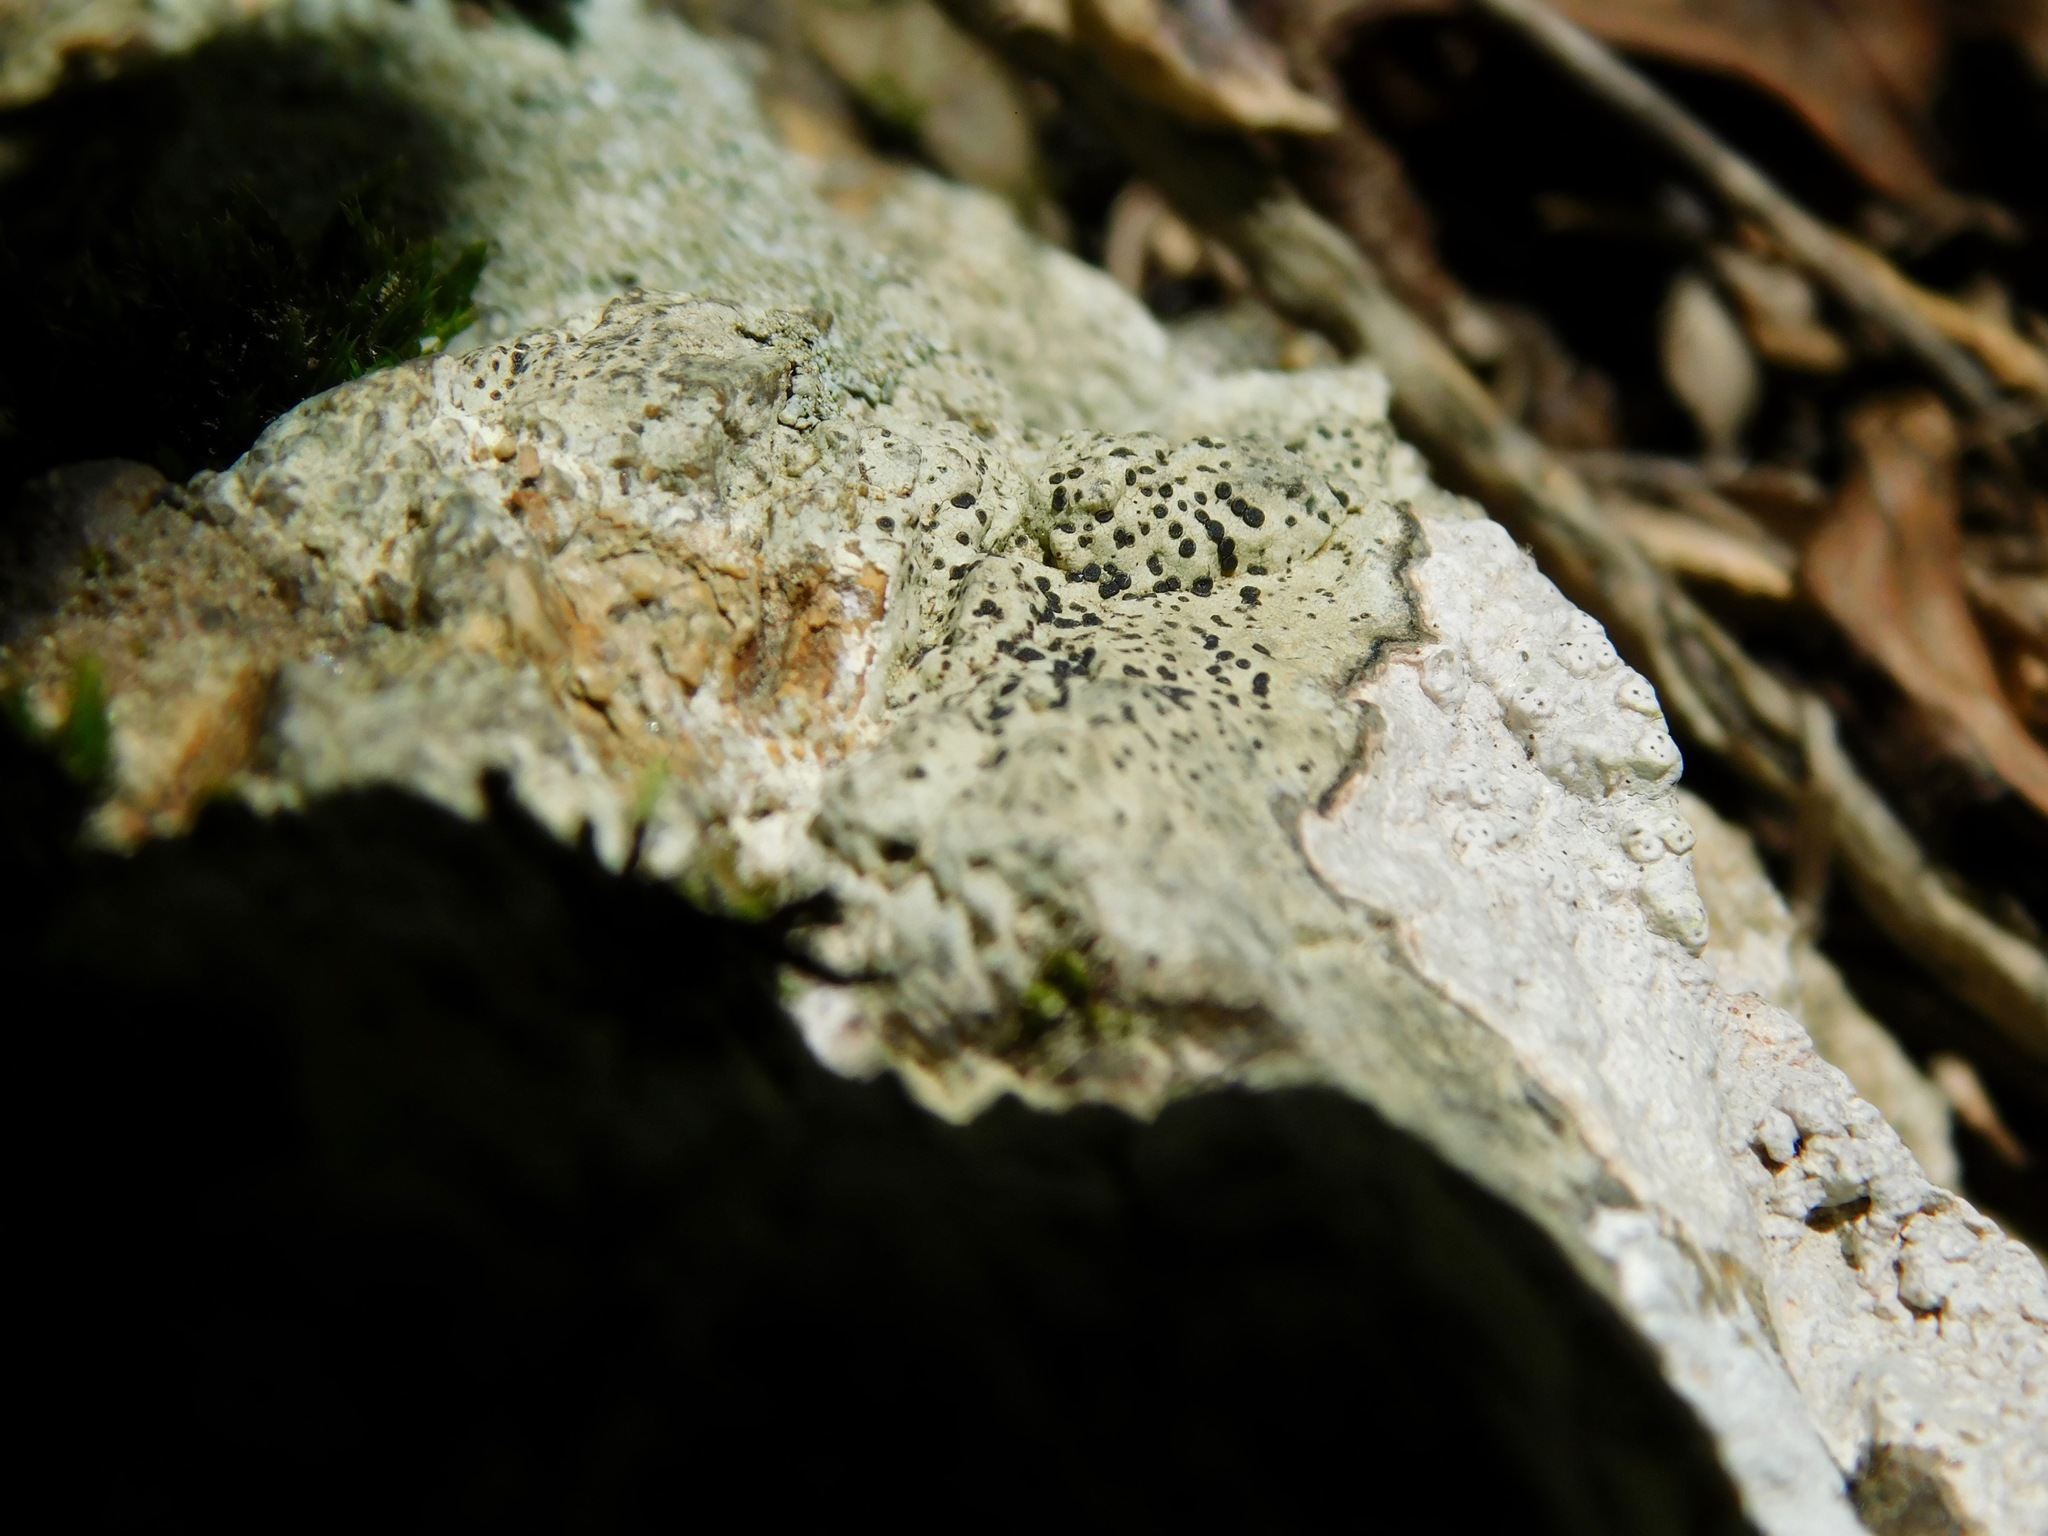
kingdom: Fungi
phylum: Ascomycota
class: Lecanoromycetes
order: Rhizocarpales
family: Rhizocarpaceae
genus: Rhizocarpon
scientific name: Rhizocarpon hochstetteri
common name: Smooth map lichen
